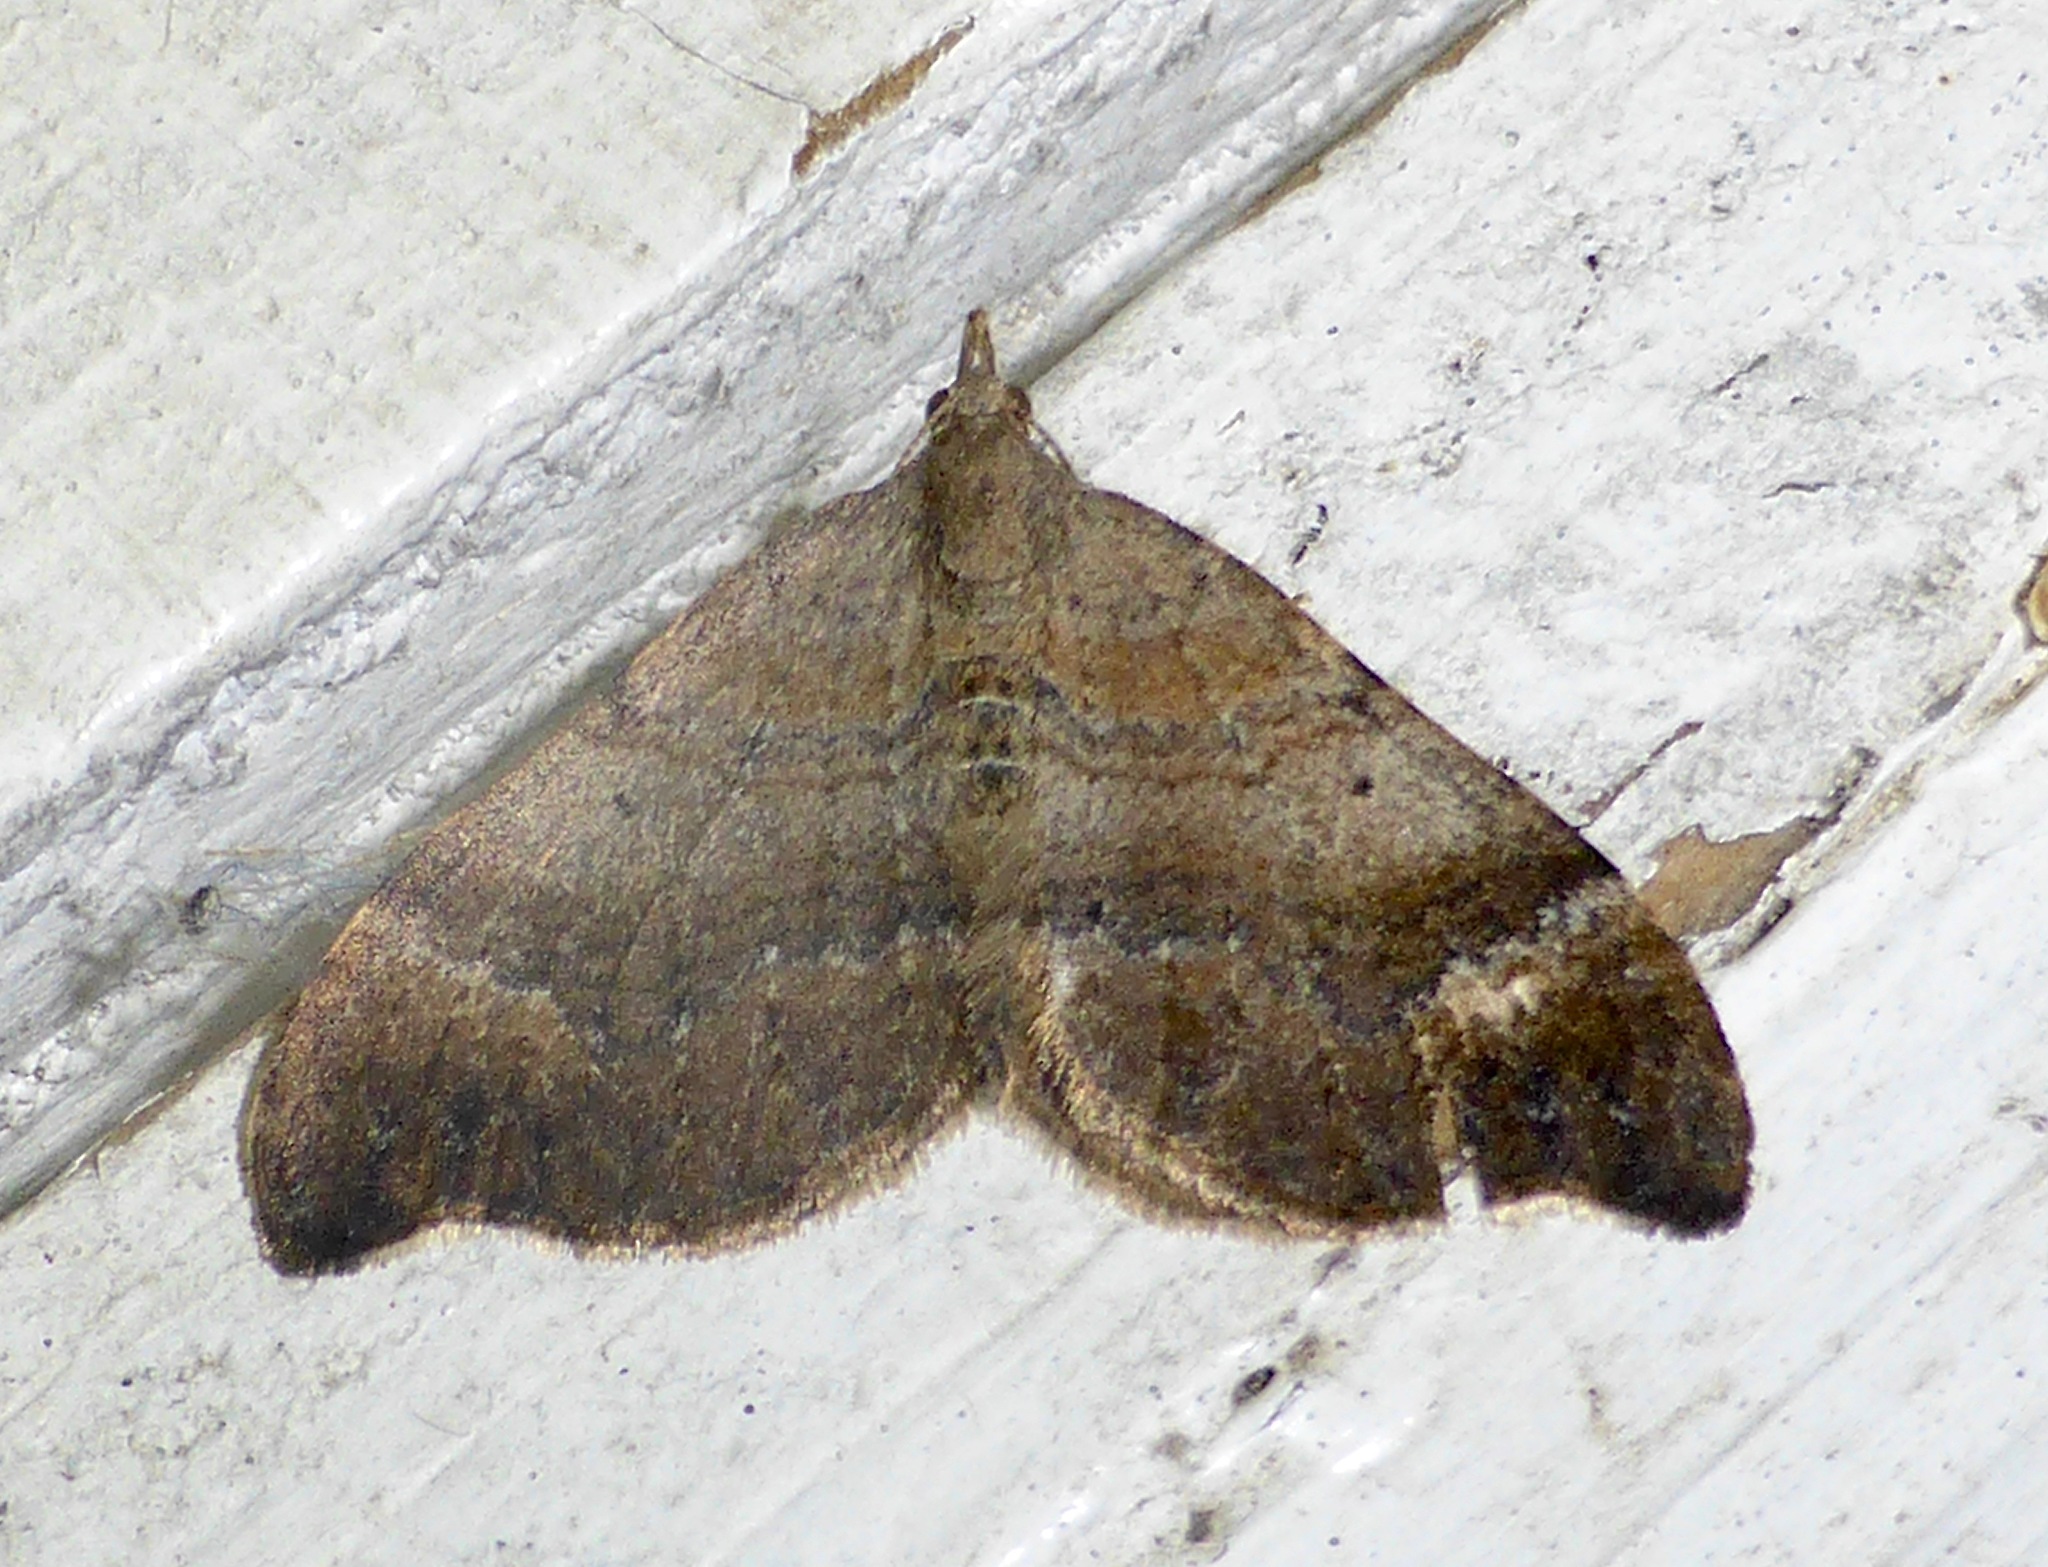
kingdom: Animalia
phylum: Arthropoda
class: Insecta
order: Lepidoptera
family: Geometridae
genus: Homodotis
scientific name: Homodotis megaspilata
